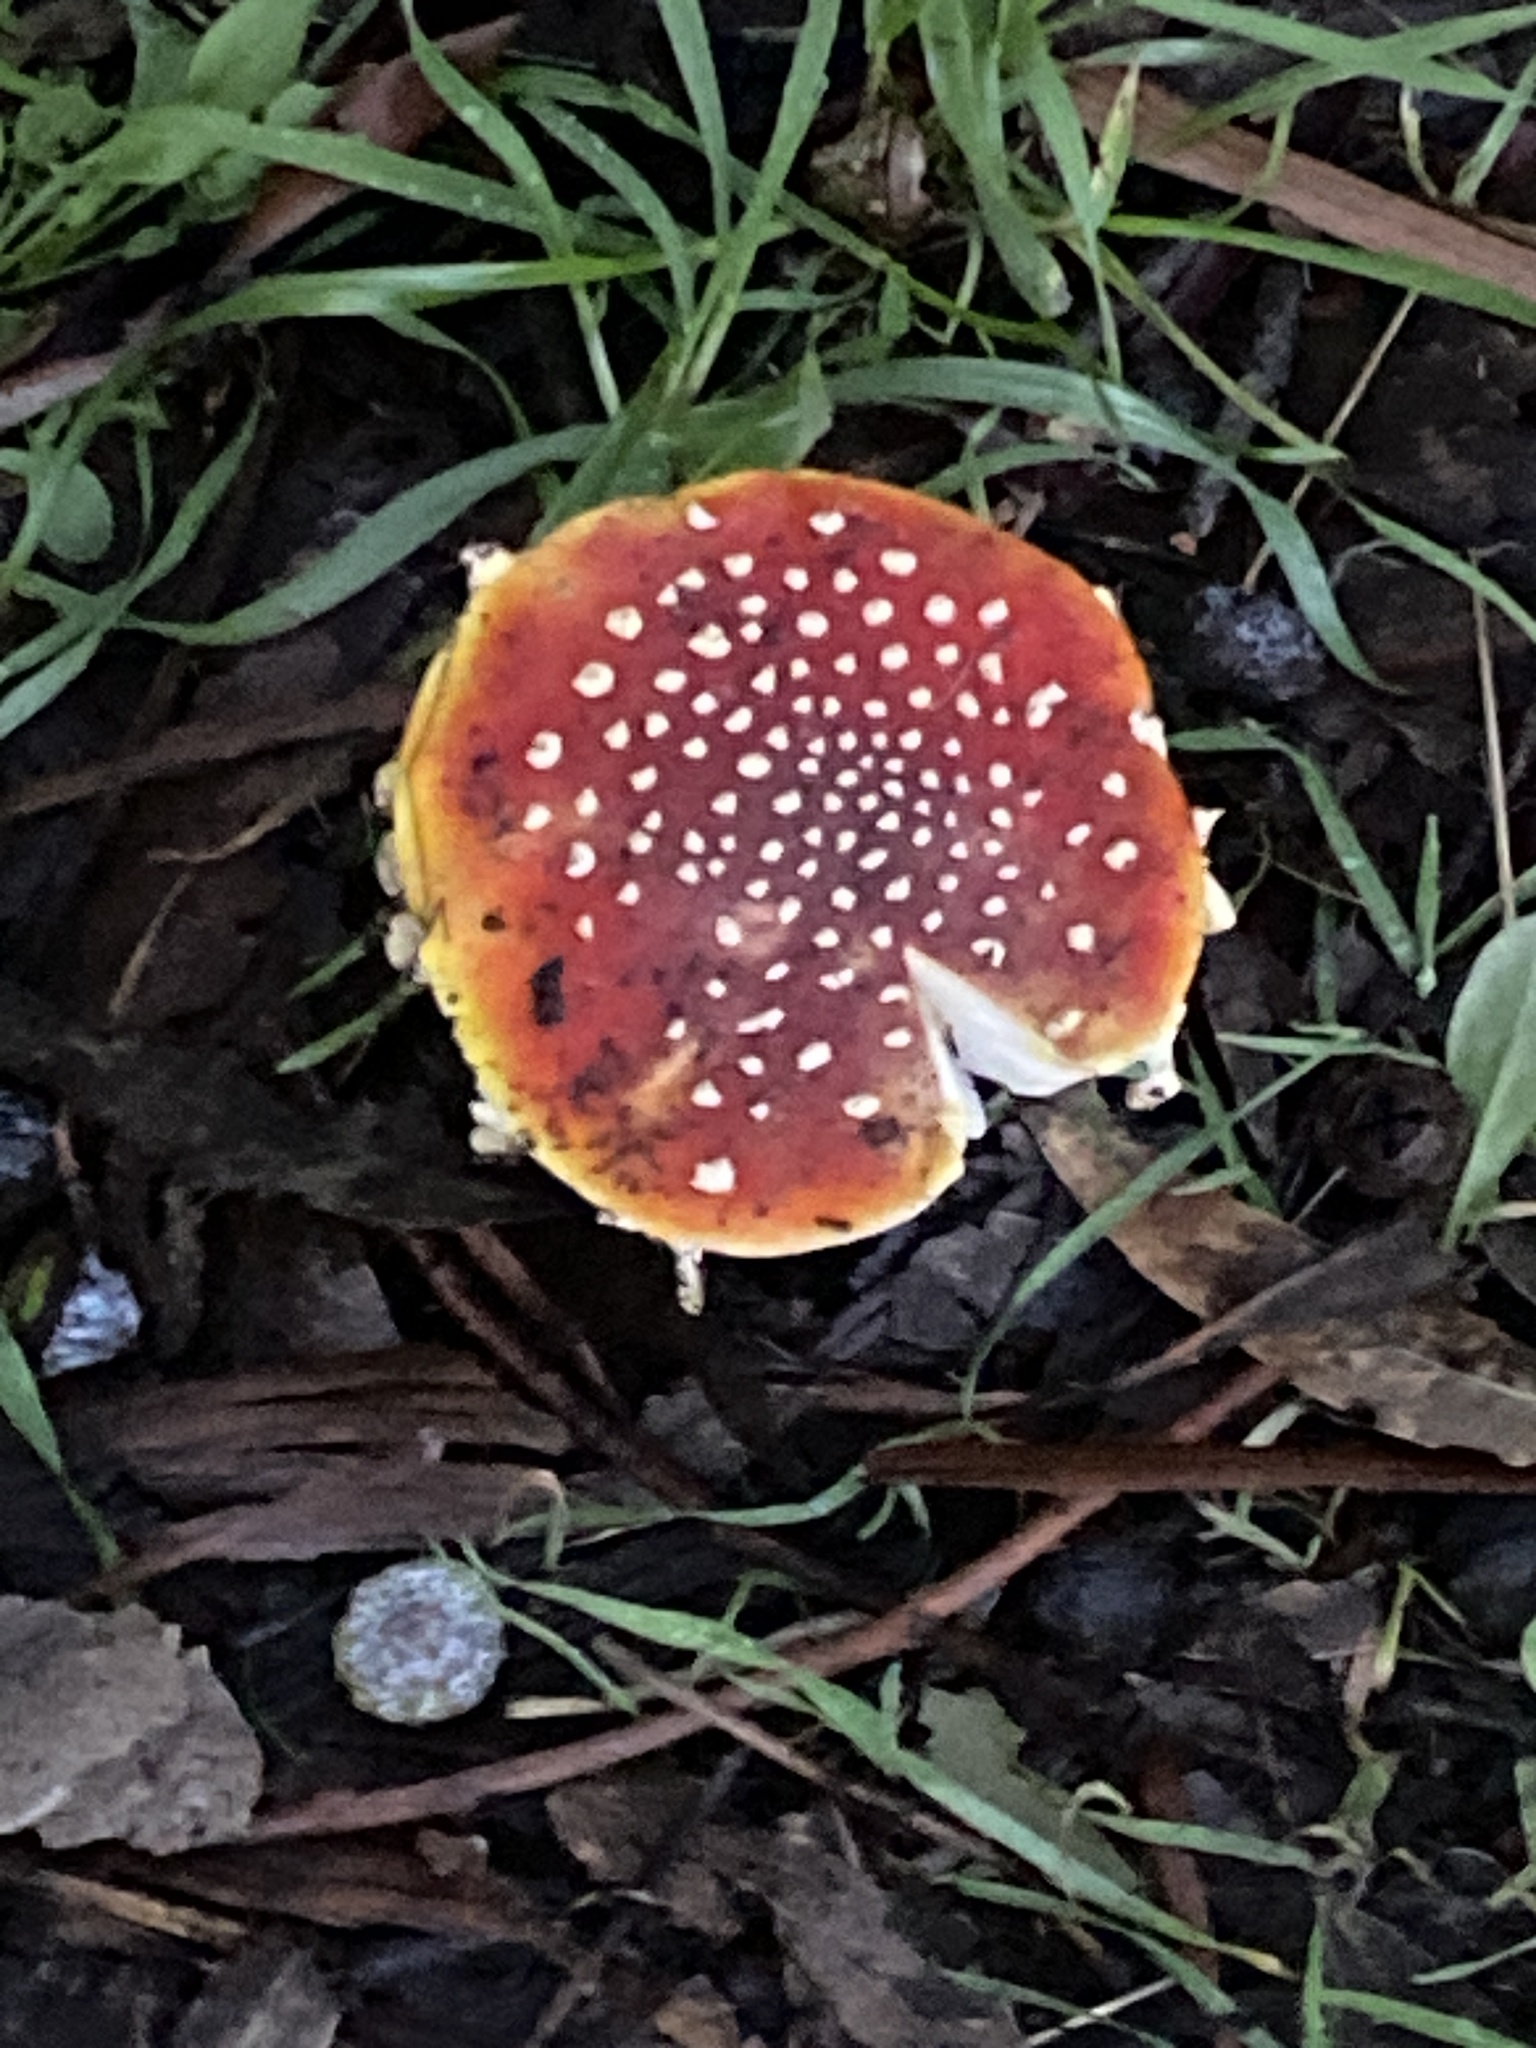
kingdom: Fungi
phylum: Basidiomycota
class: Agaricomycetes
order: Agaricales
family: Amanitaceae
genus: Amanita
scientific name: Amanita muscaria
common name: Fly agaric
